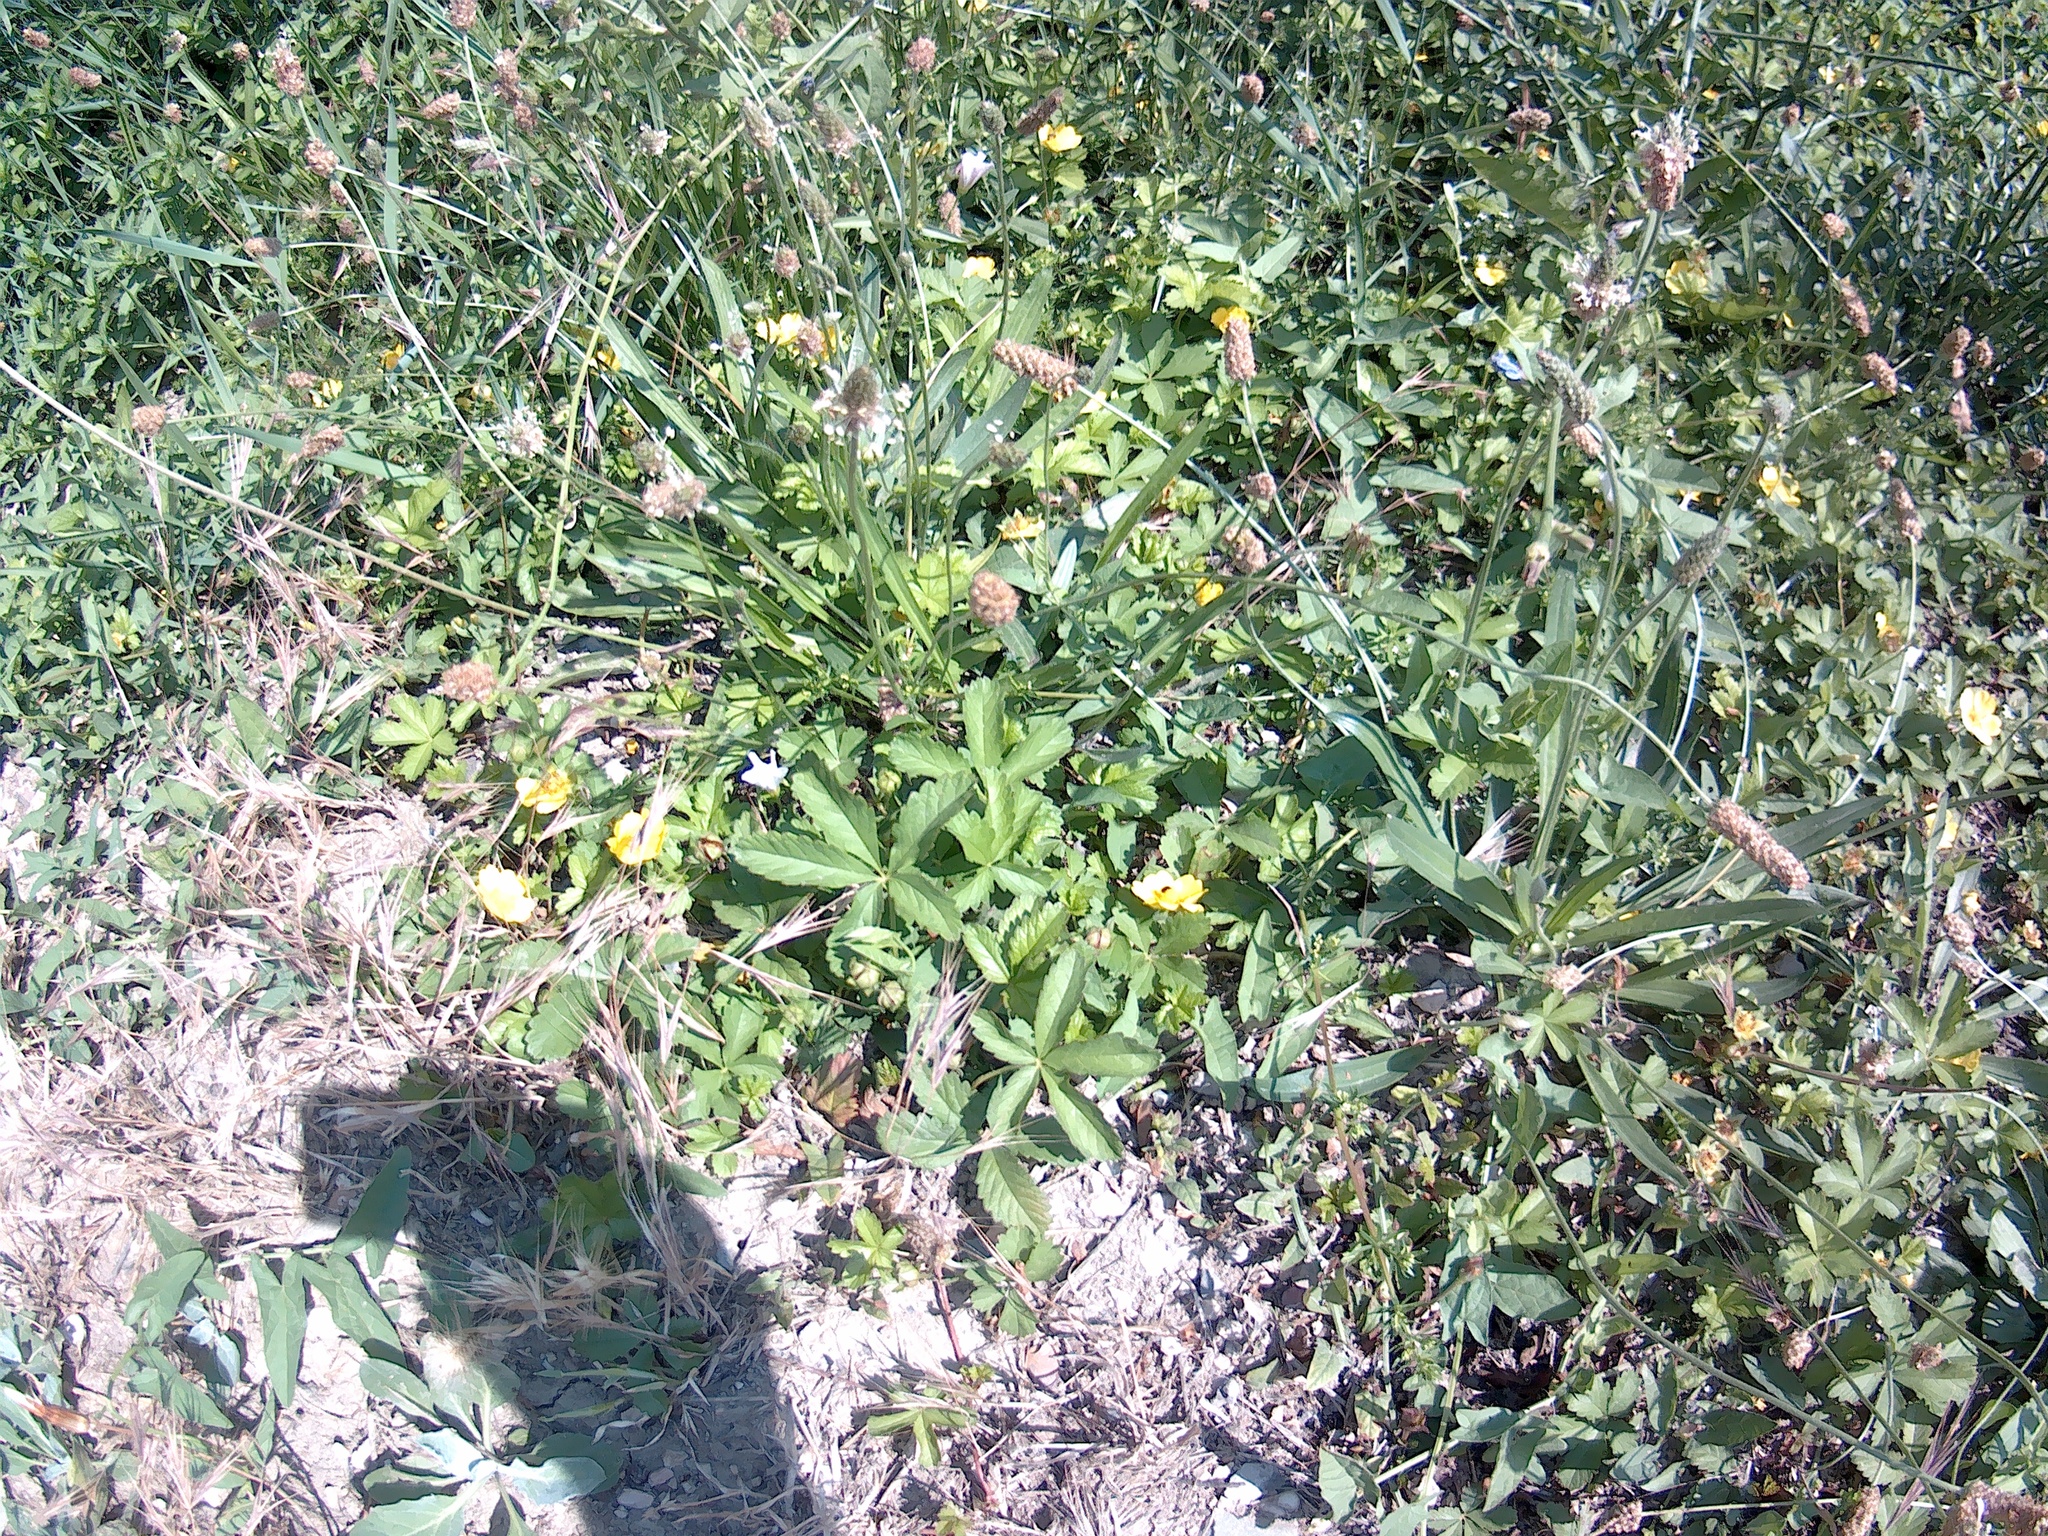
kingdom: Plantae
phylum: Tracheophyta
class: Magnoliopsida
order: Rosales
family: Rosaceae
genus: Potentilla
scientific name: Potentilla reptans
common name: Creeping cinquefoil
